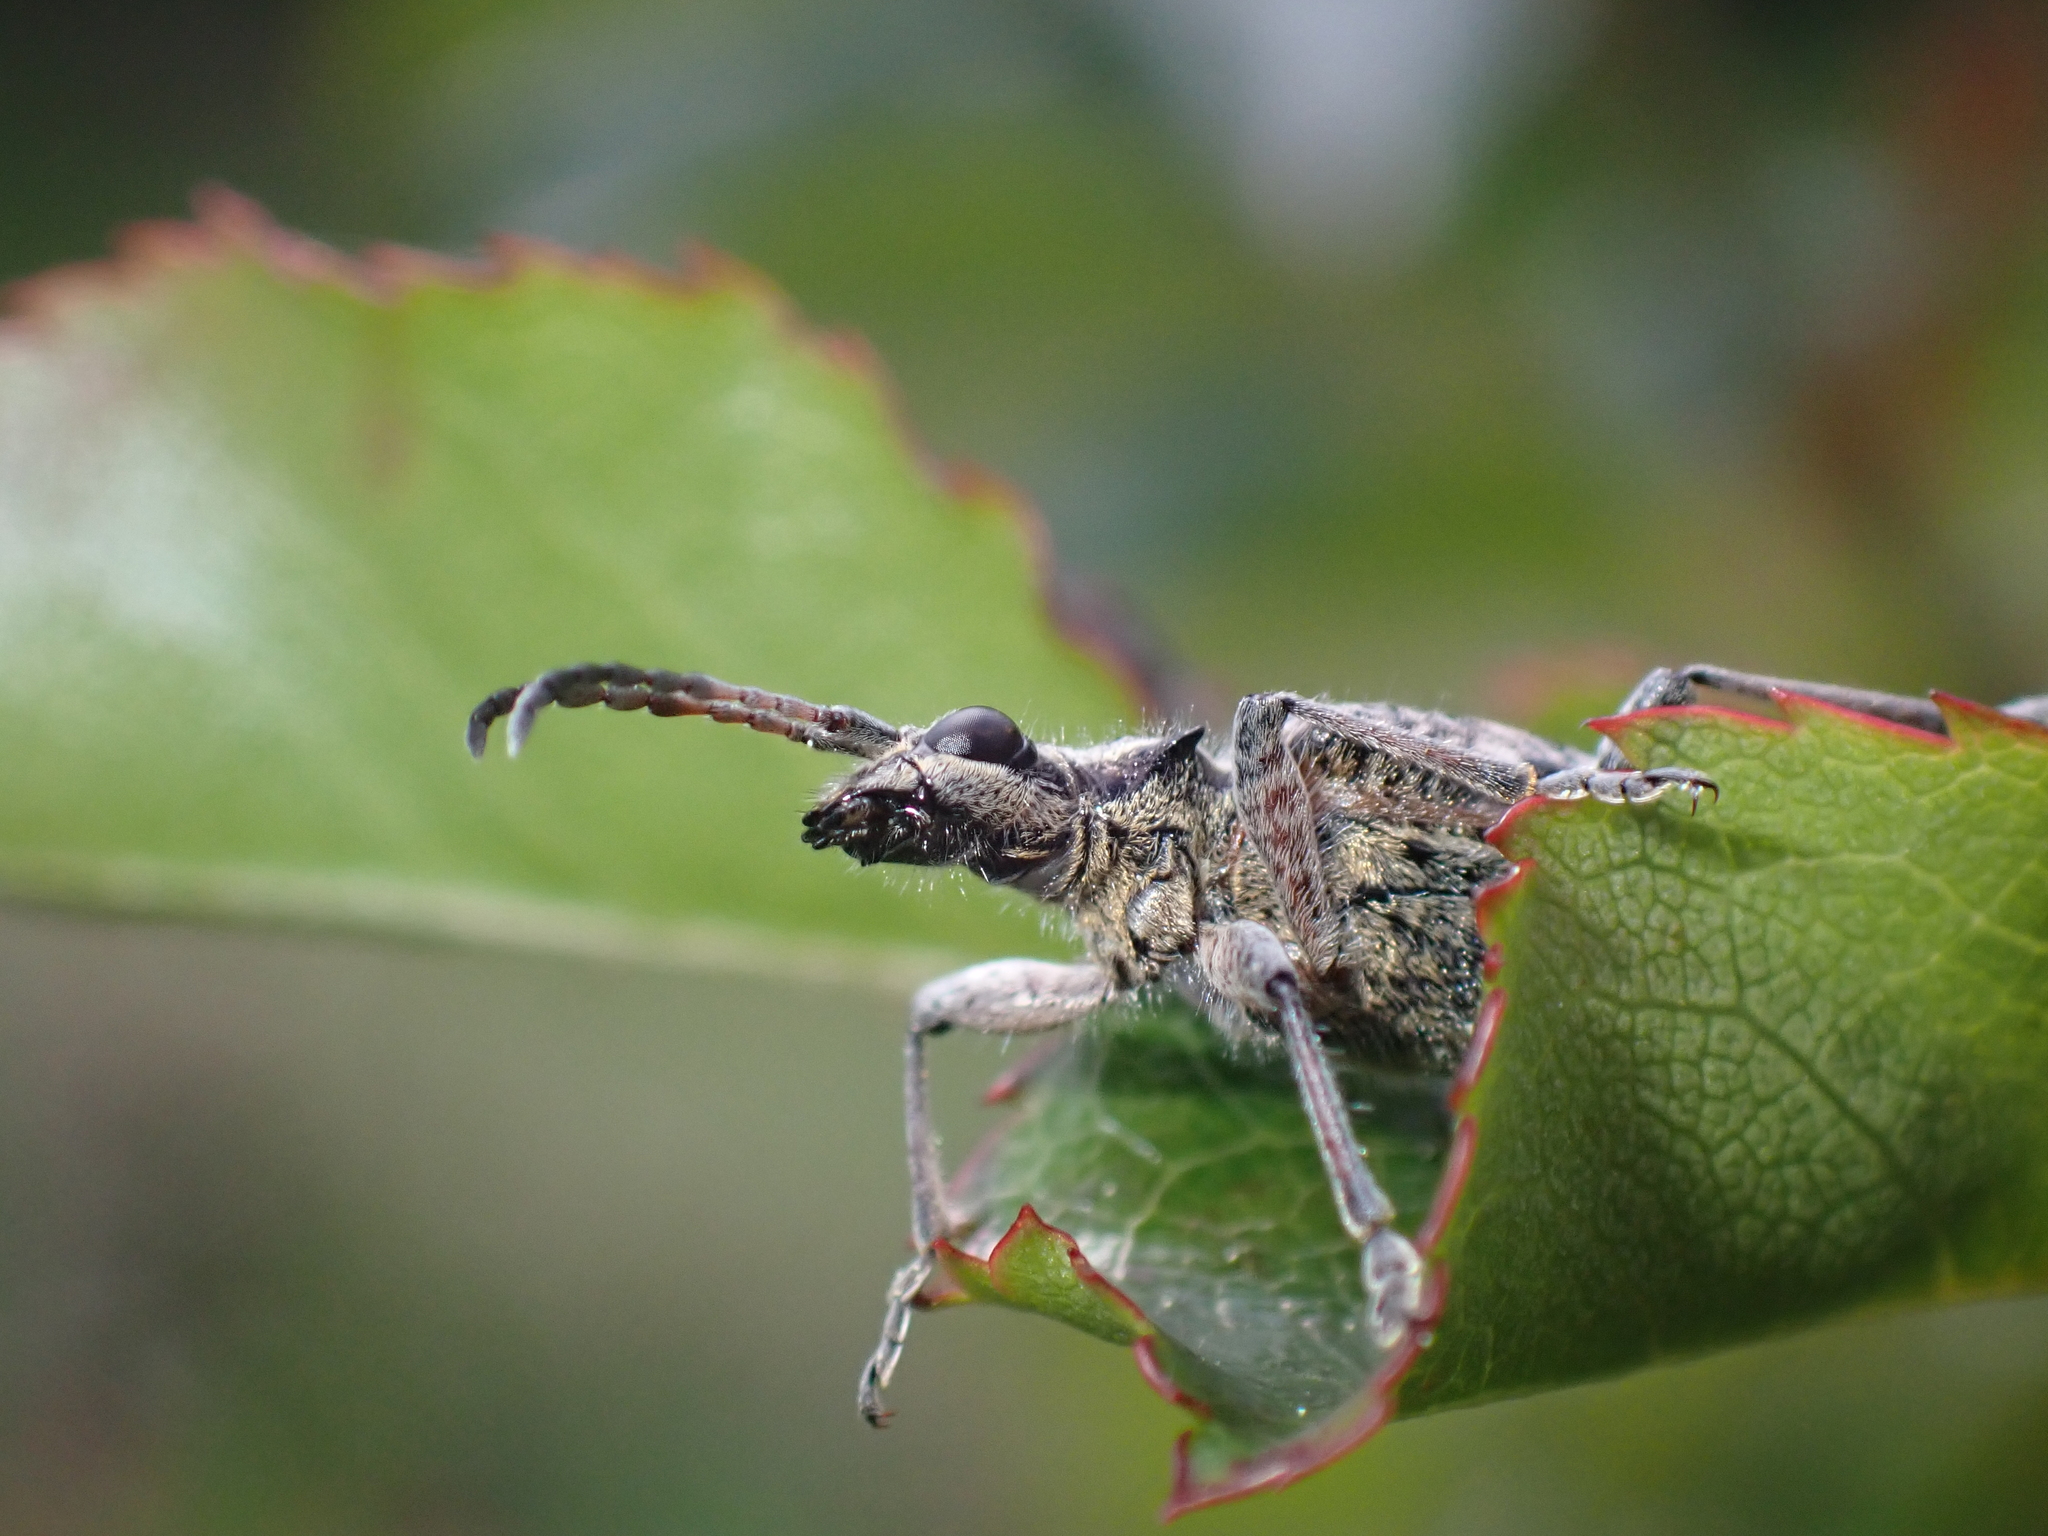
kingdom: Animalia
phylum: Arthropoda
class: Insecta
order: Coleoptera
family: Cerambycidae
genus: Rhagium
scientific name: Rhagium inquisitor
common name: Ribbed pine borer
